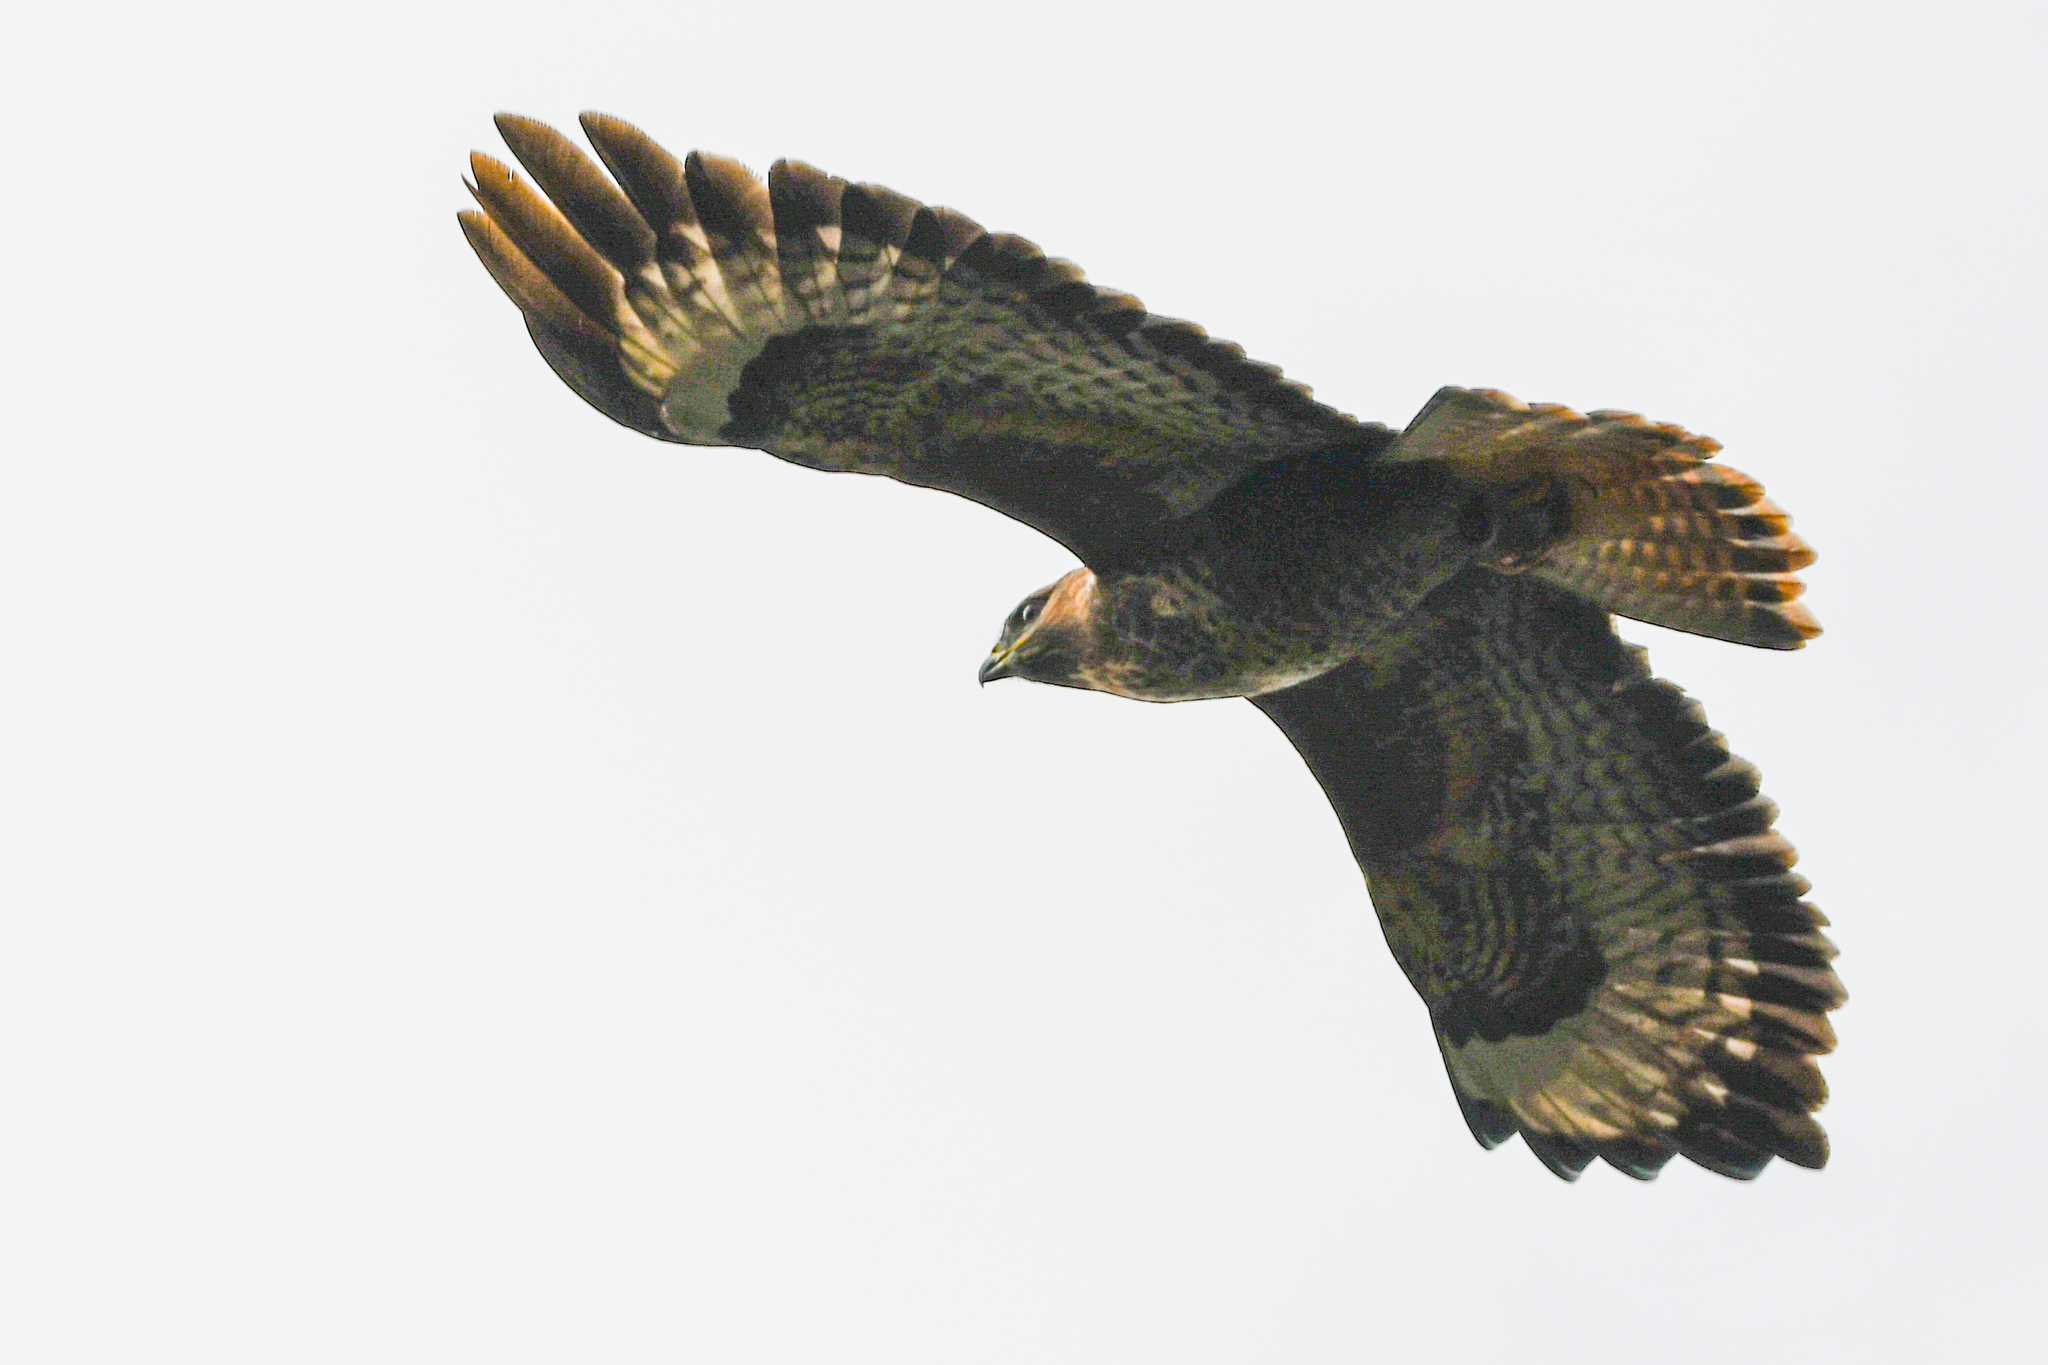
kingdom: Animalia
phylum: Chordata
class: Aves
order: Accipitriformes
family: Accipitridae
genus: Buteo
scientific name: Buteo buteo
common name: Common buzzard
